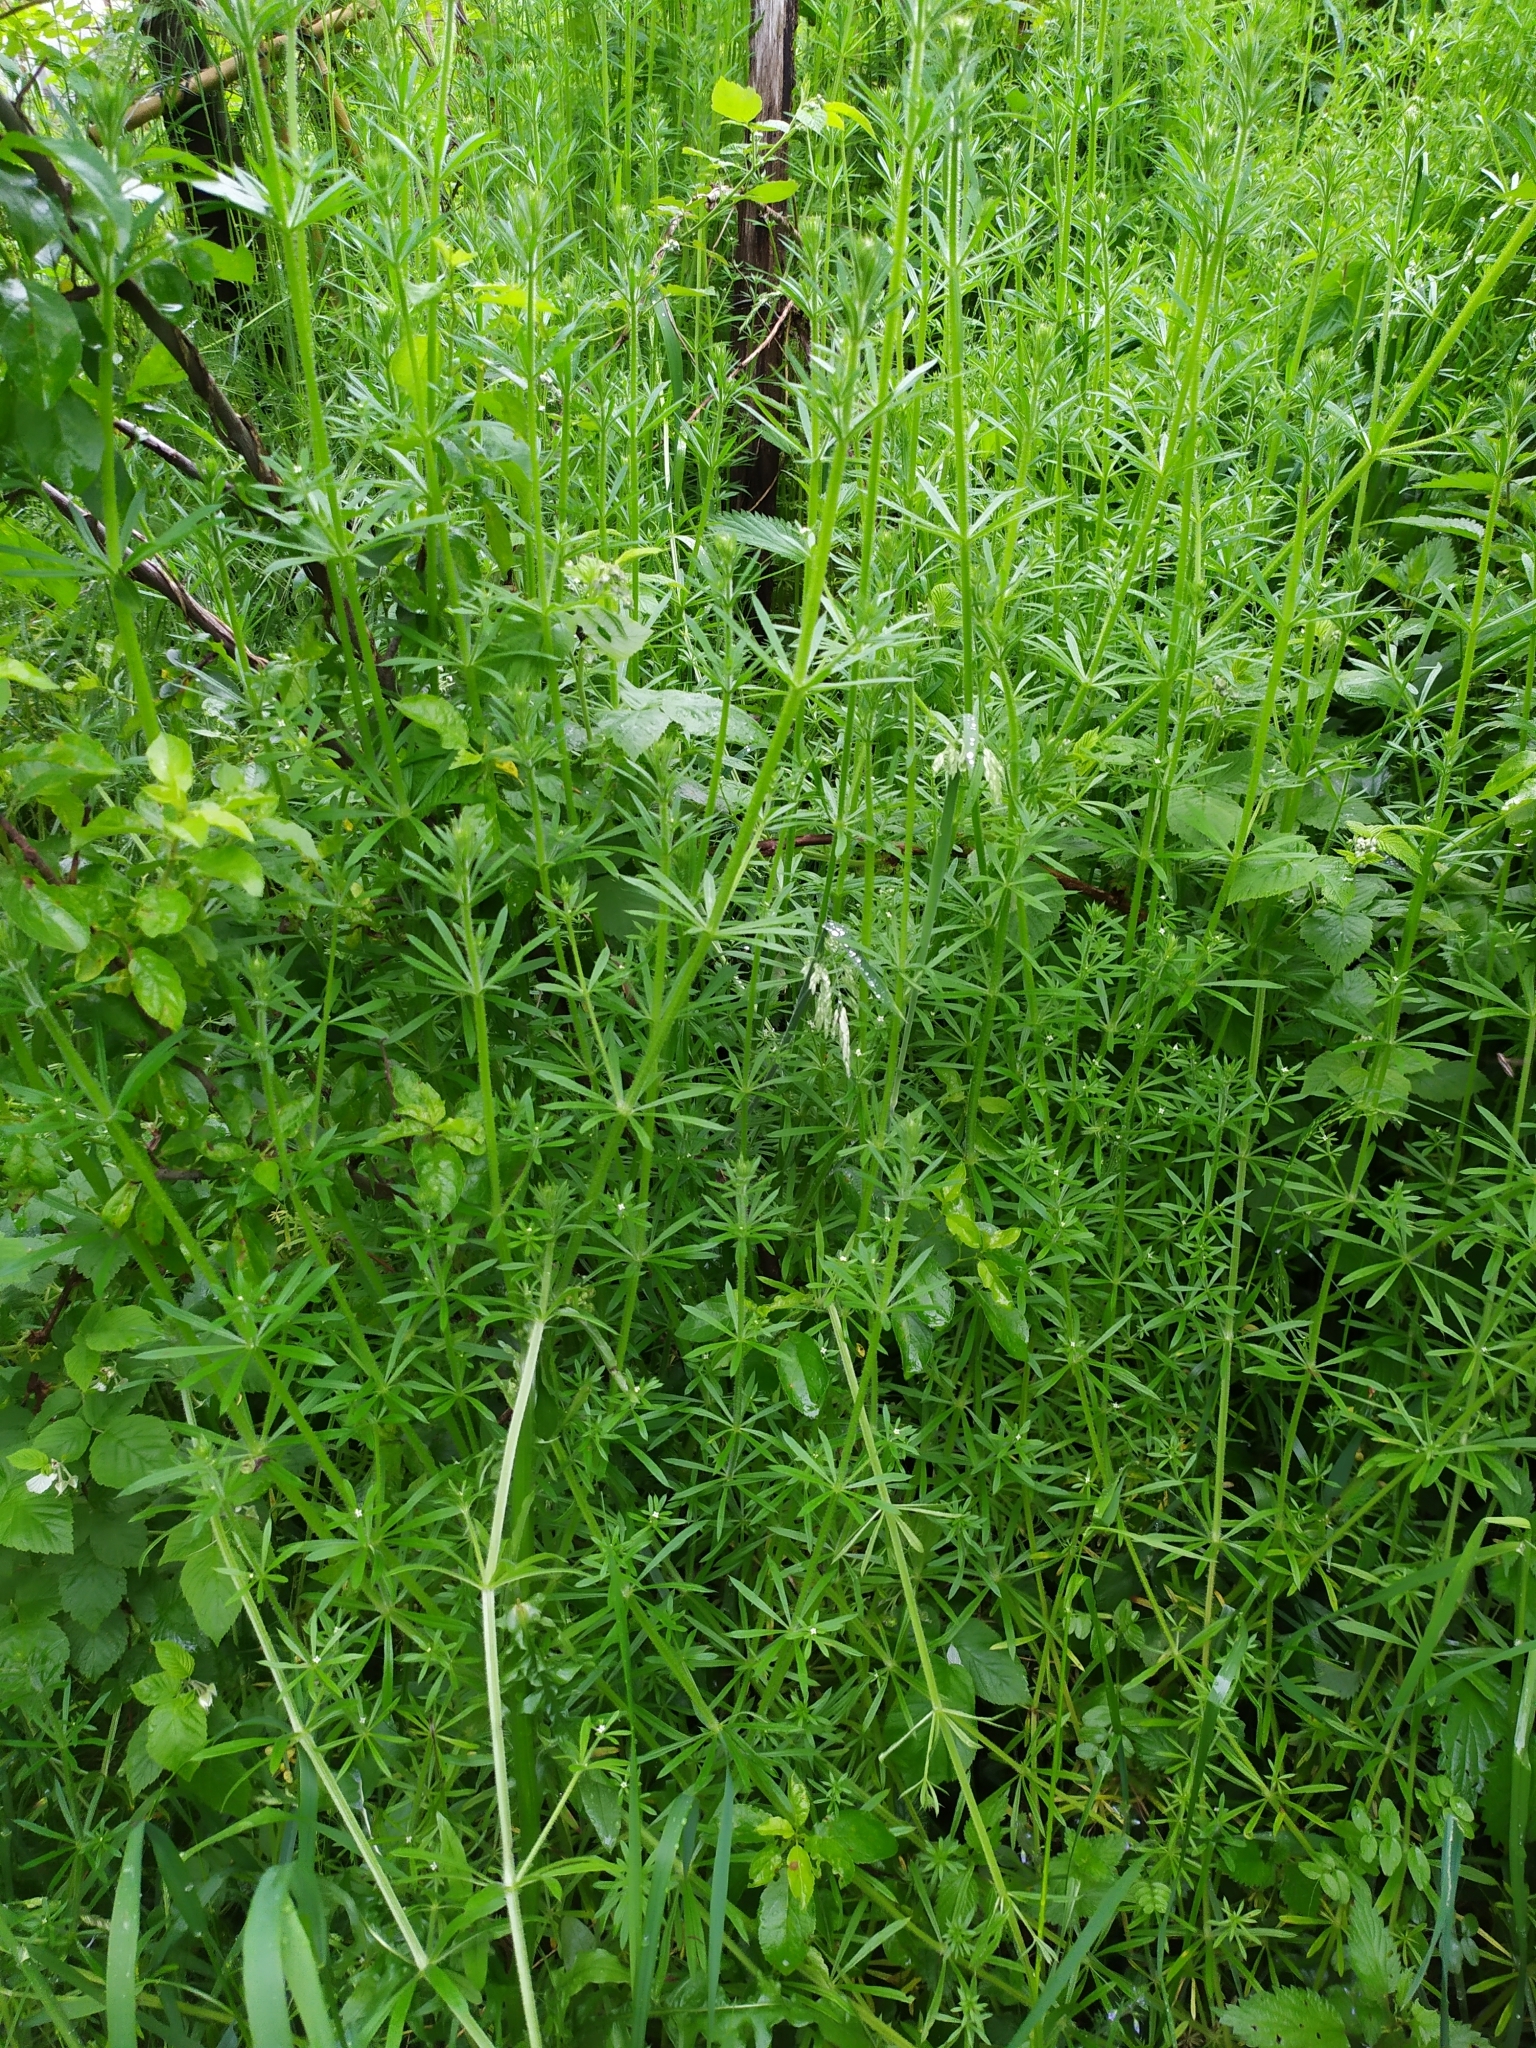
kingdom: Plantae
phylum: Tracheophyta
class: Magnoliopsida
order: Gentianales
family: Rubiaceae
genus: Galium
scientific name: Galium aparine
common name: Cleavers
